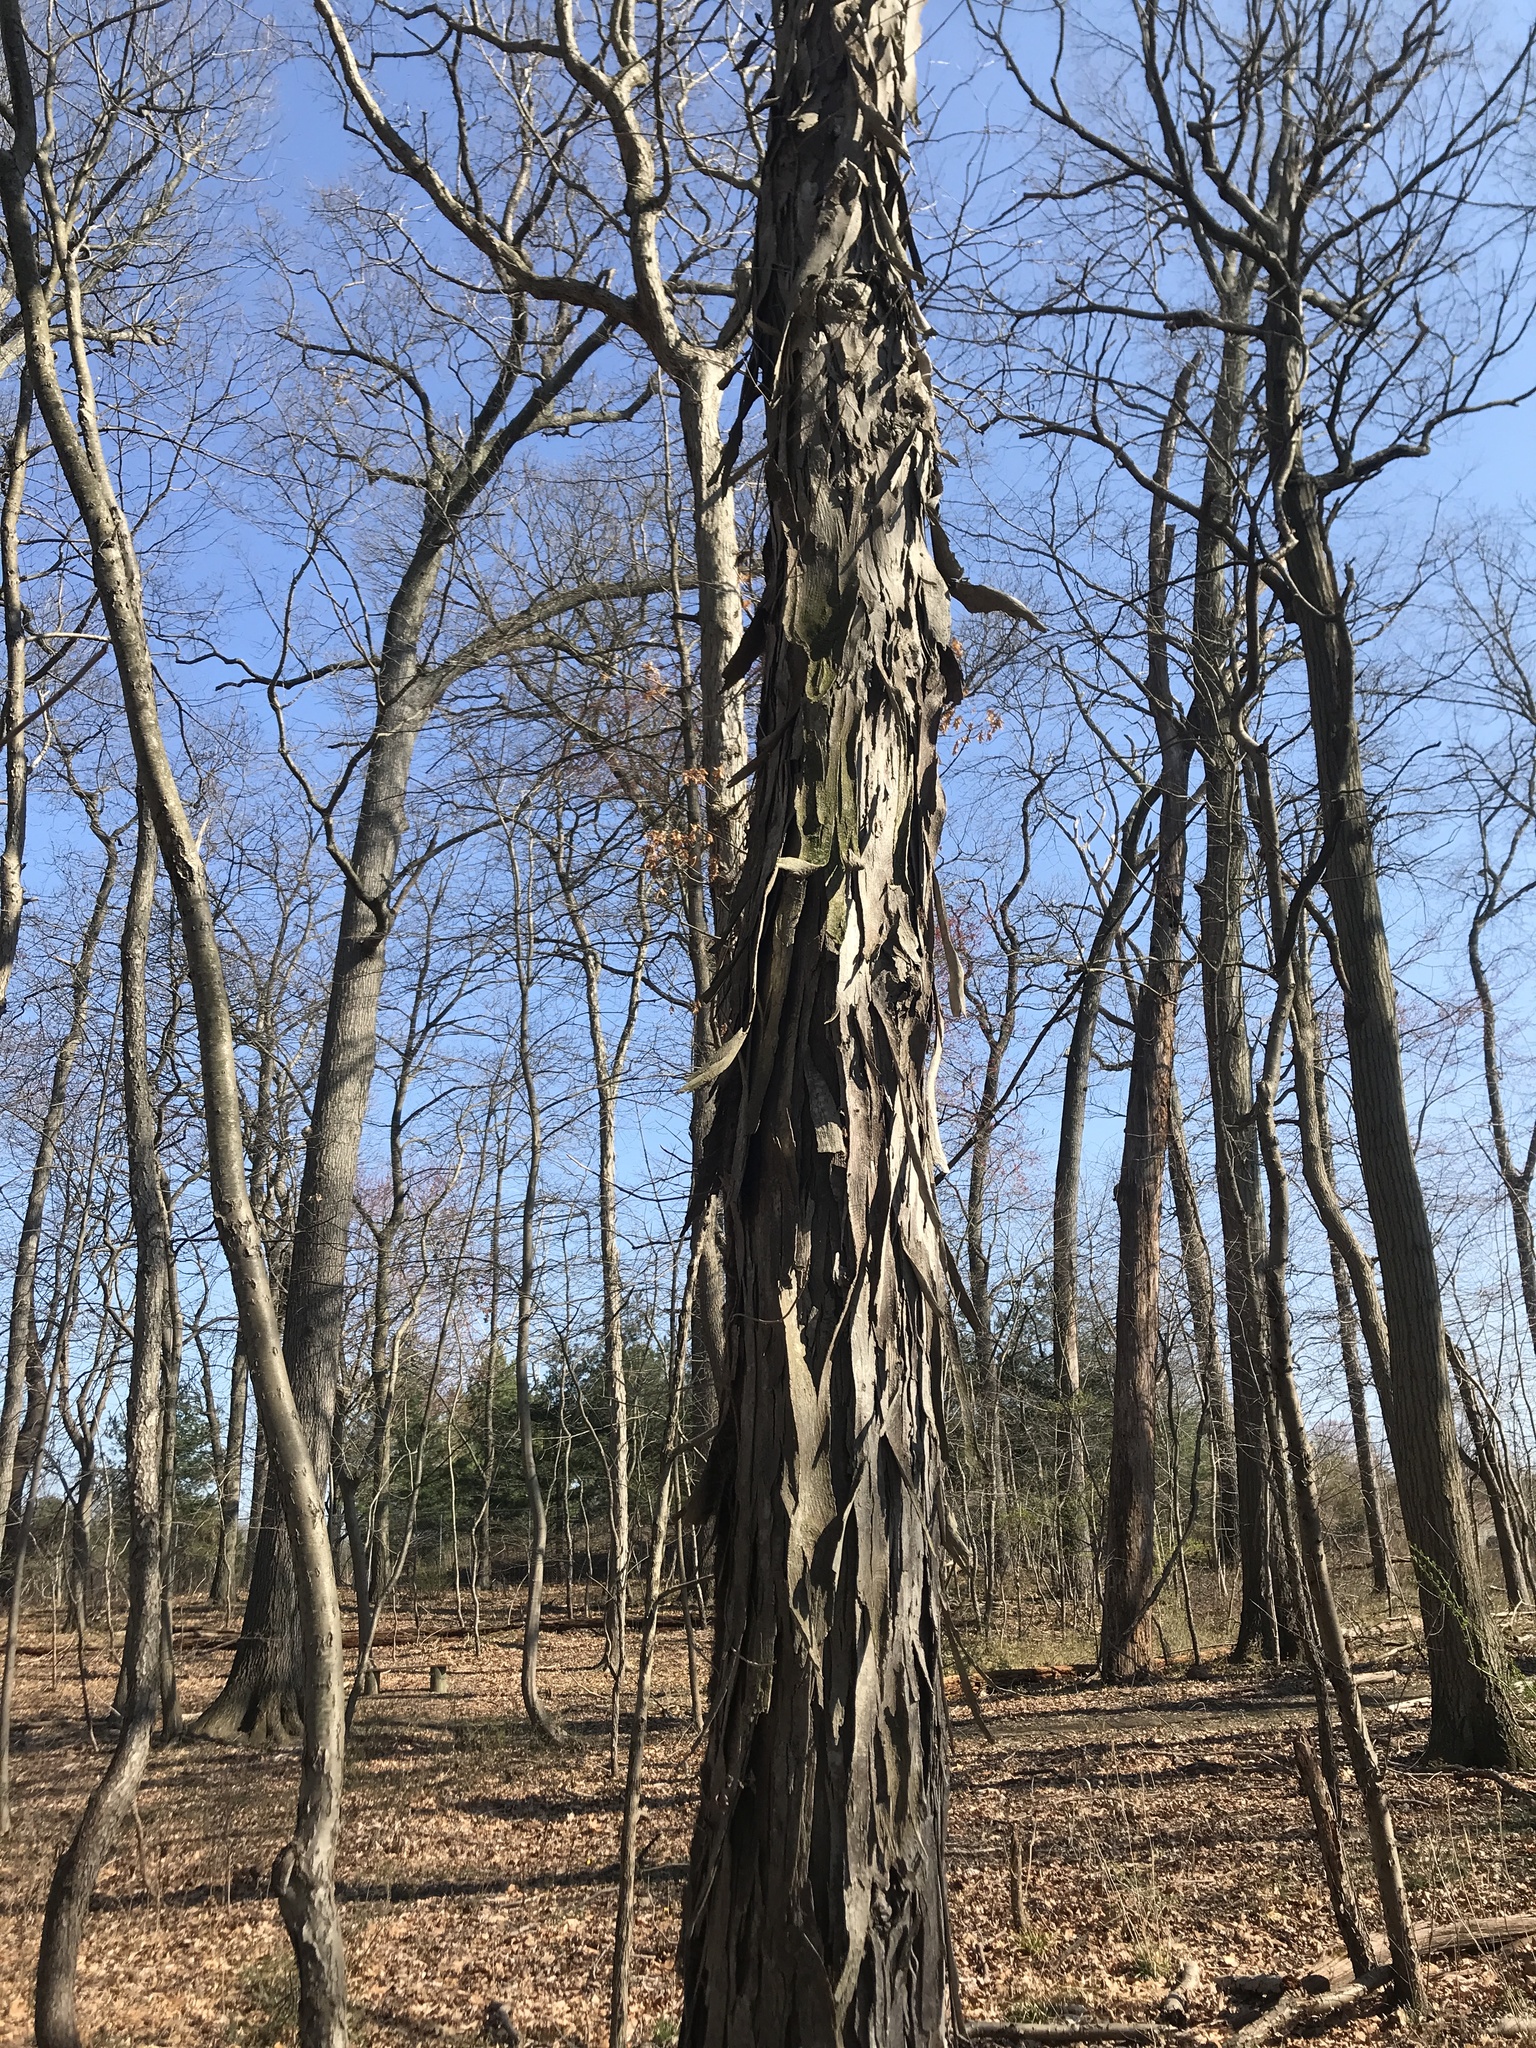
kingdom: Plantae
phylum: Tracheophyta
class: Magnoliopsida
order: Fagales
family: Juglandaceae
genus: Carya
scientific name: Carya ovata
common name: Shagbark hickory
